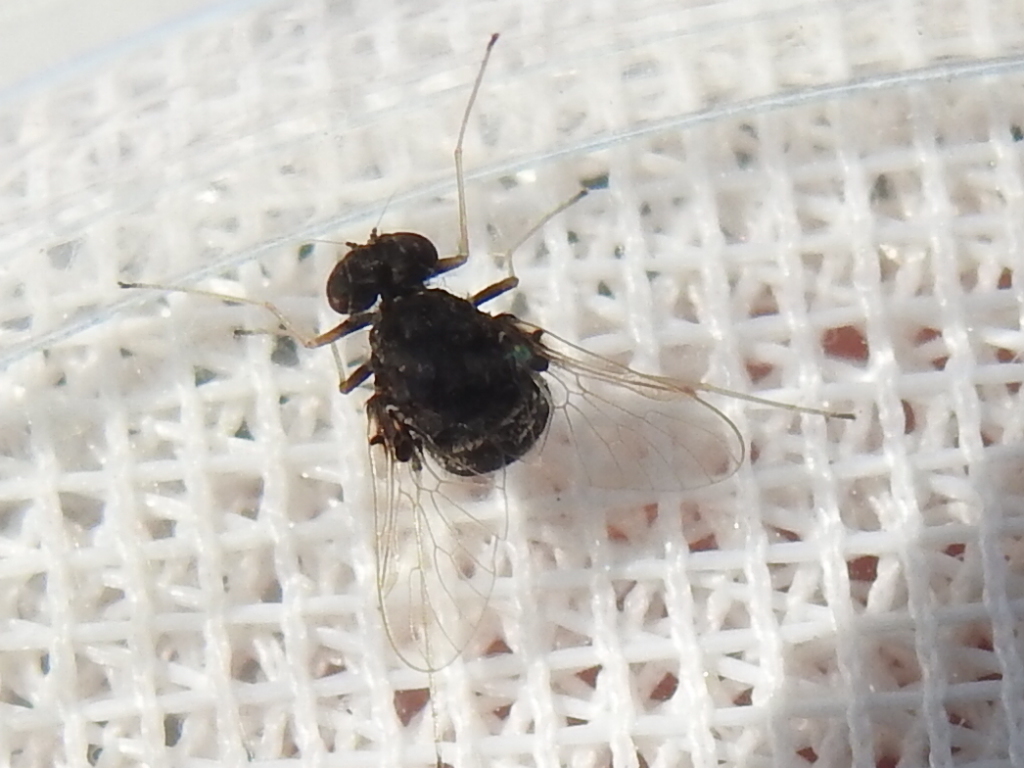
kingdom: Animalia
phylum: Arthropoda
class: Insecta
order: Diptera
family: Rhagionidae
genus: Chrysopilus
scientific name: Chrysopilus basilaris
